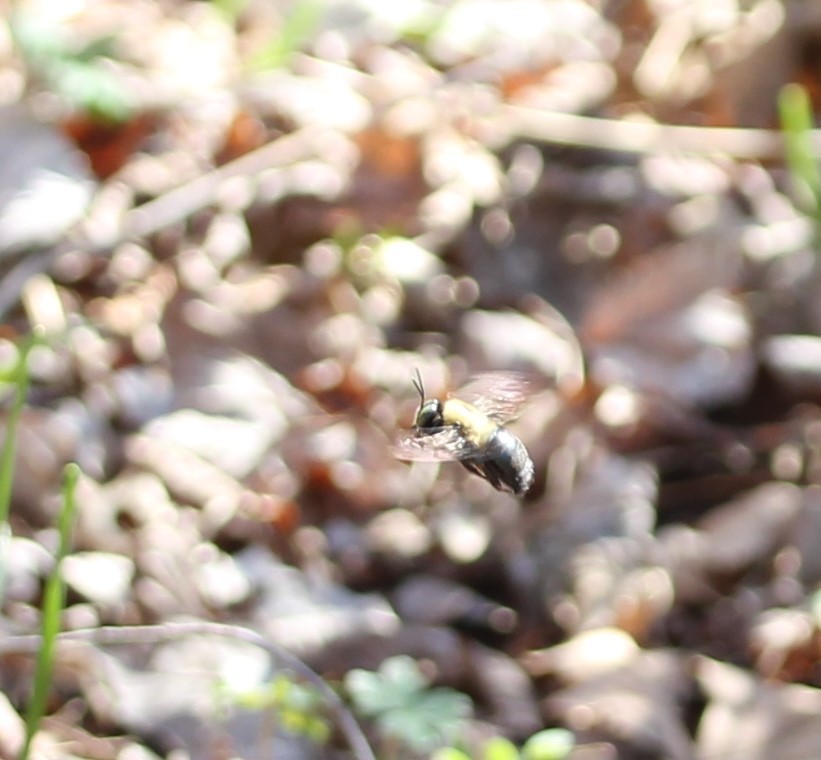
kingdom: Animalia
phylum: Arthropoda
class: Insecta
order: Hymenoptera
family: Apidae
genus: Xylocopa
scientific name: Xylocopa virginica
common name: Carpenter bee
